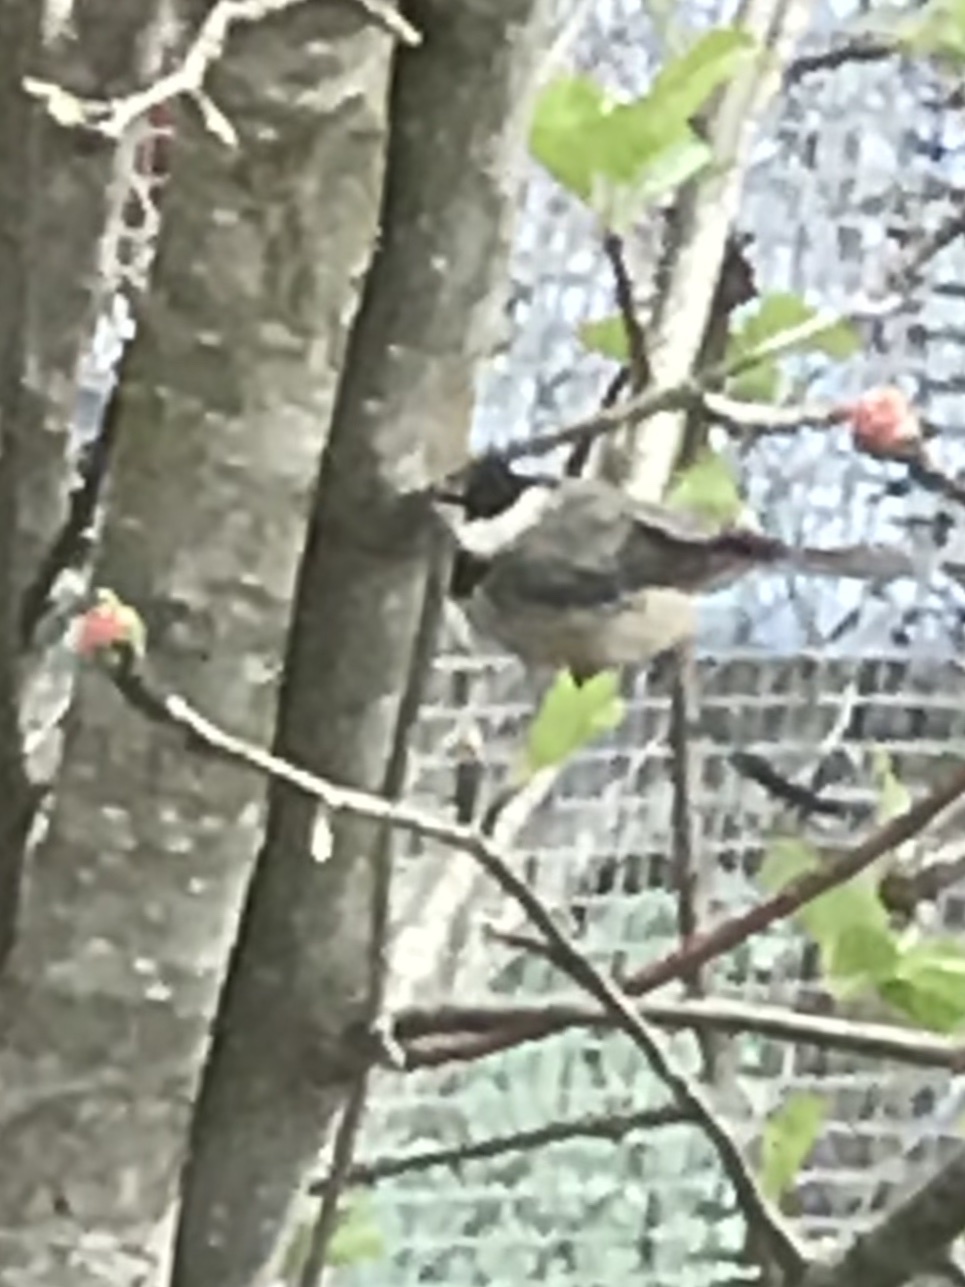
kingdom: Animalia
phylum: Chordata
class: Aves
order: Passeriformes
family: Paridae
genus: Poecile
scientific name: Poecile carolinensis
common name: Carolina chickadee
